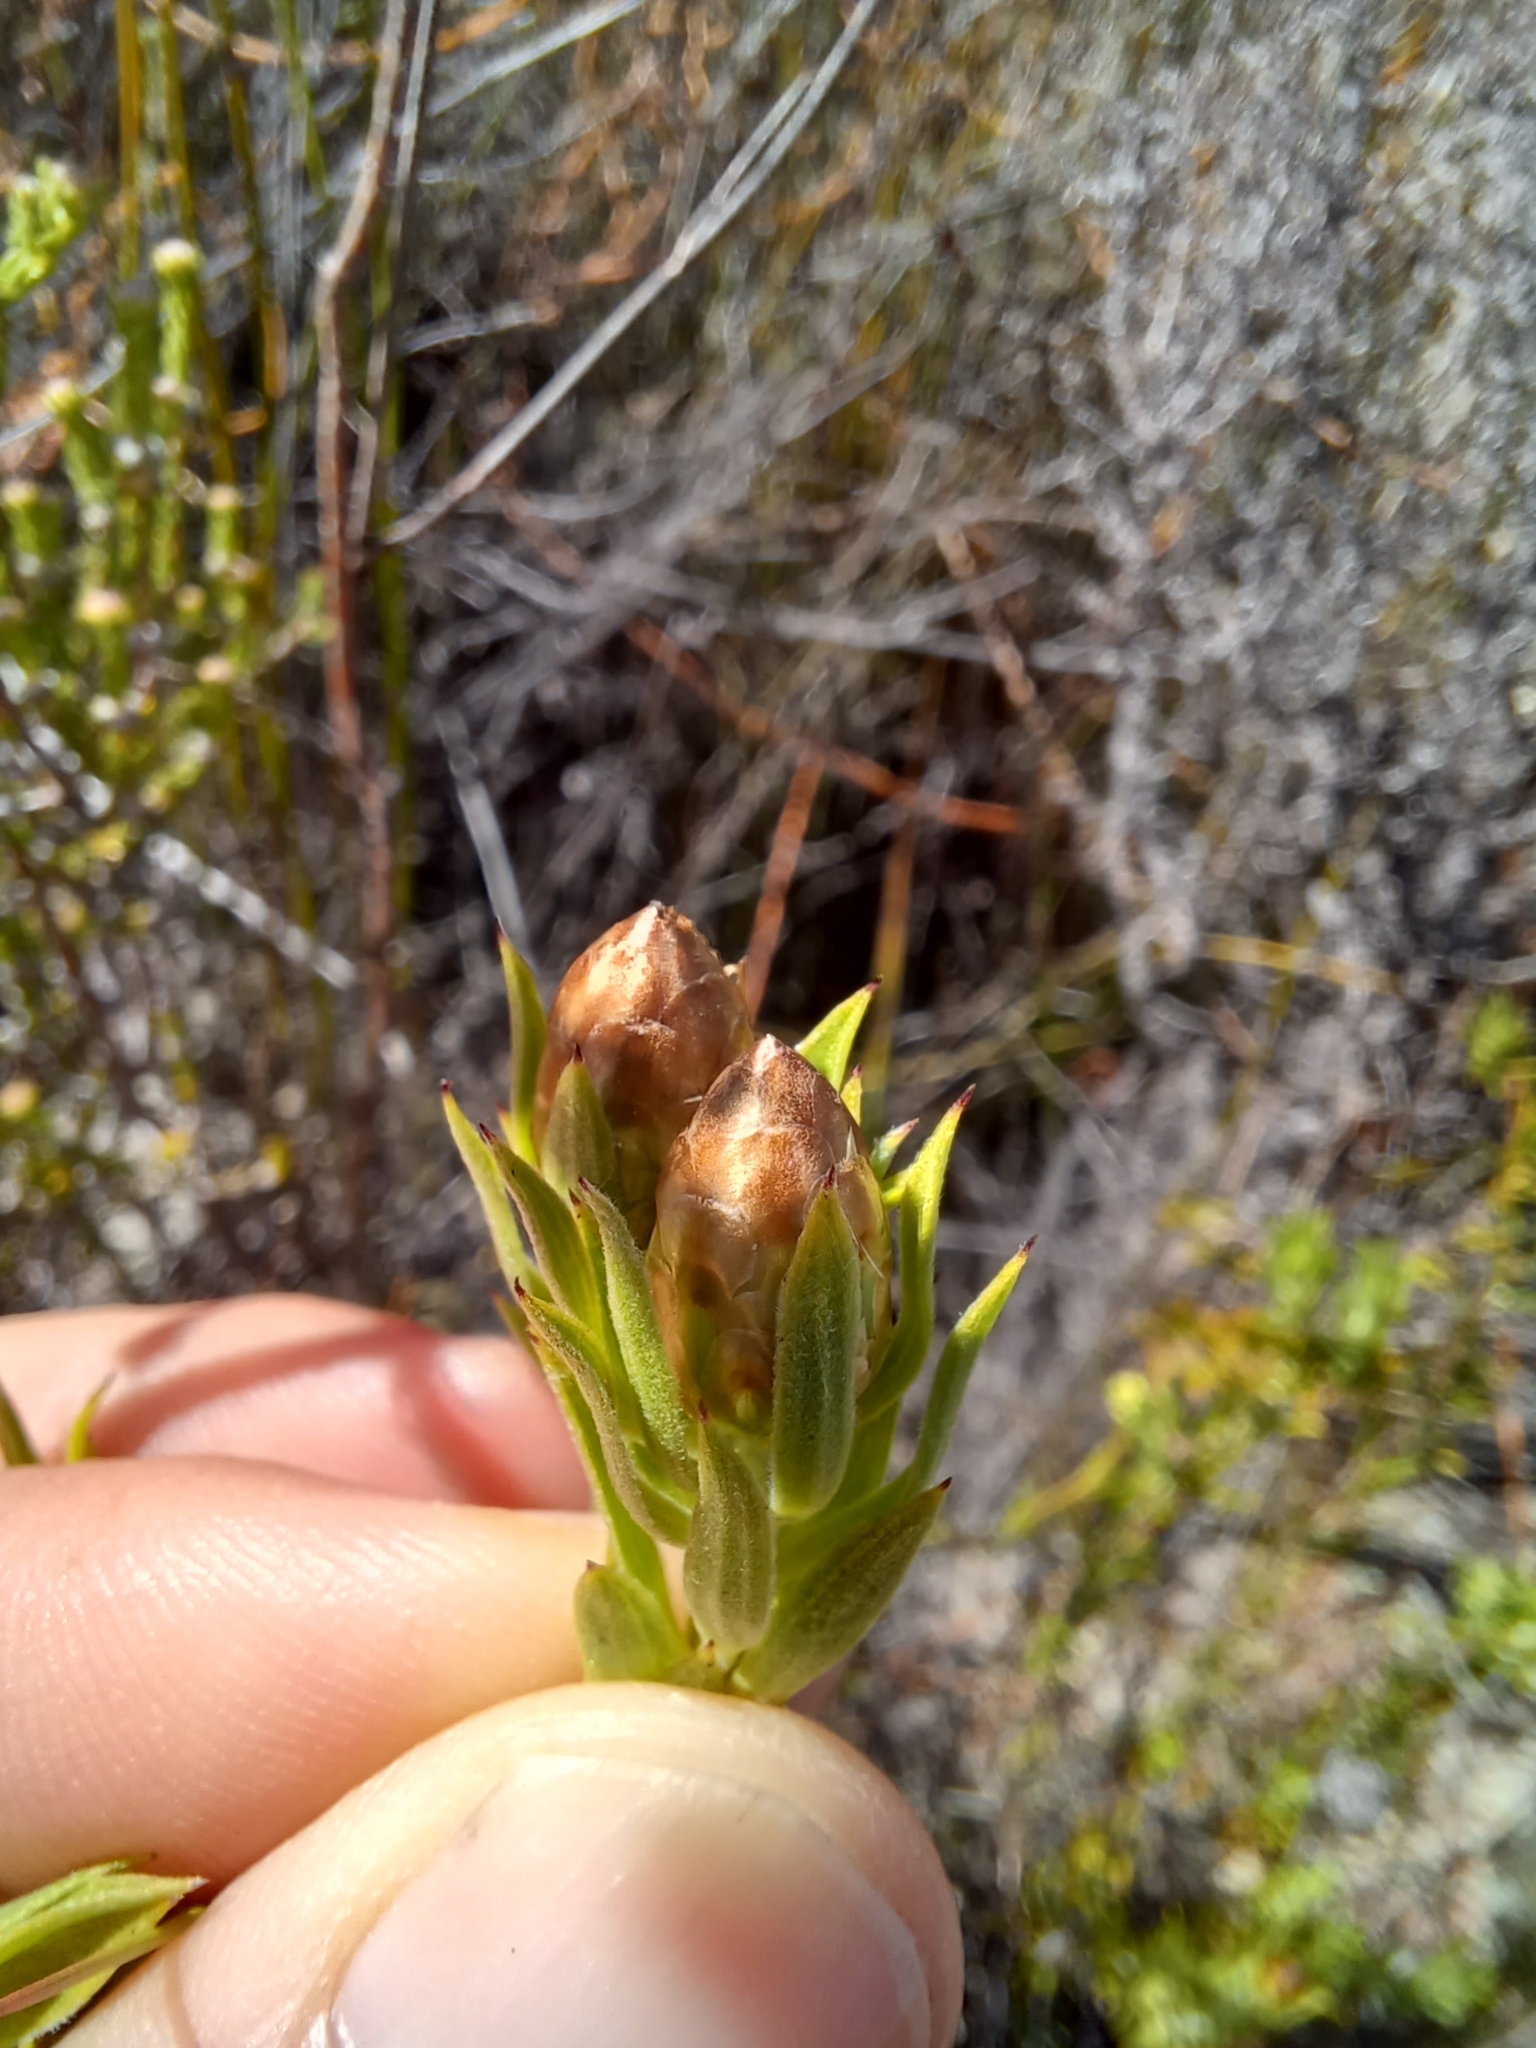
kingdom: Plantae
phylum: Tracheophyta
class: Magnoliopsida
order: Asterales
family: Asteraceae
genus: Oedera
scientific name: Oedera calycina
